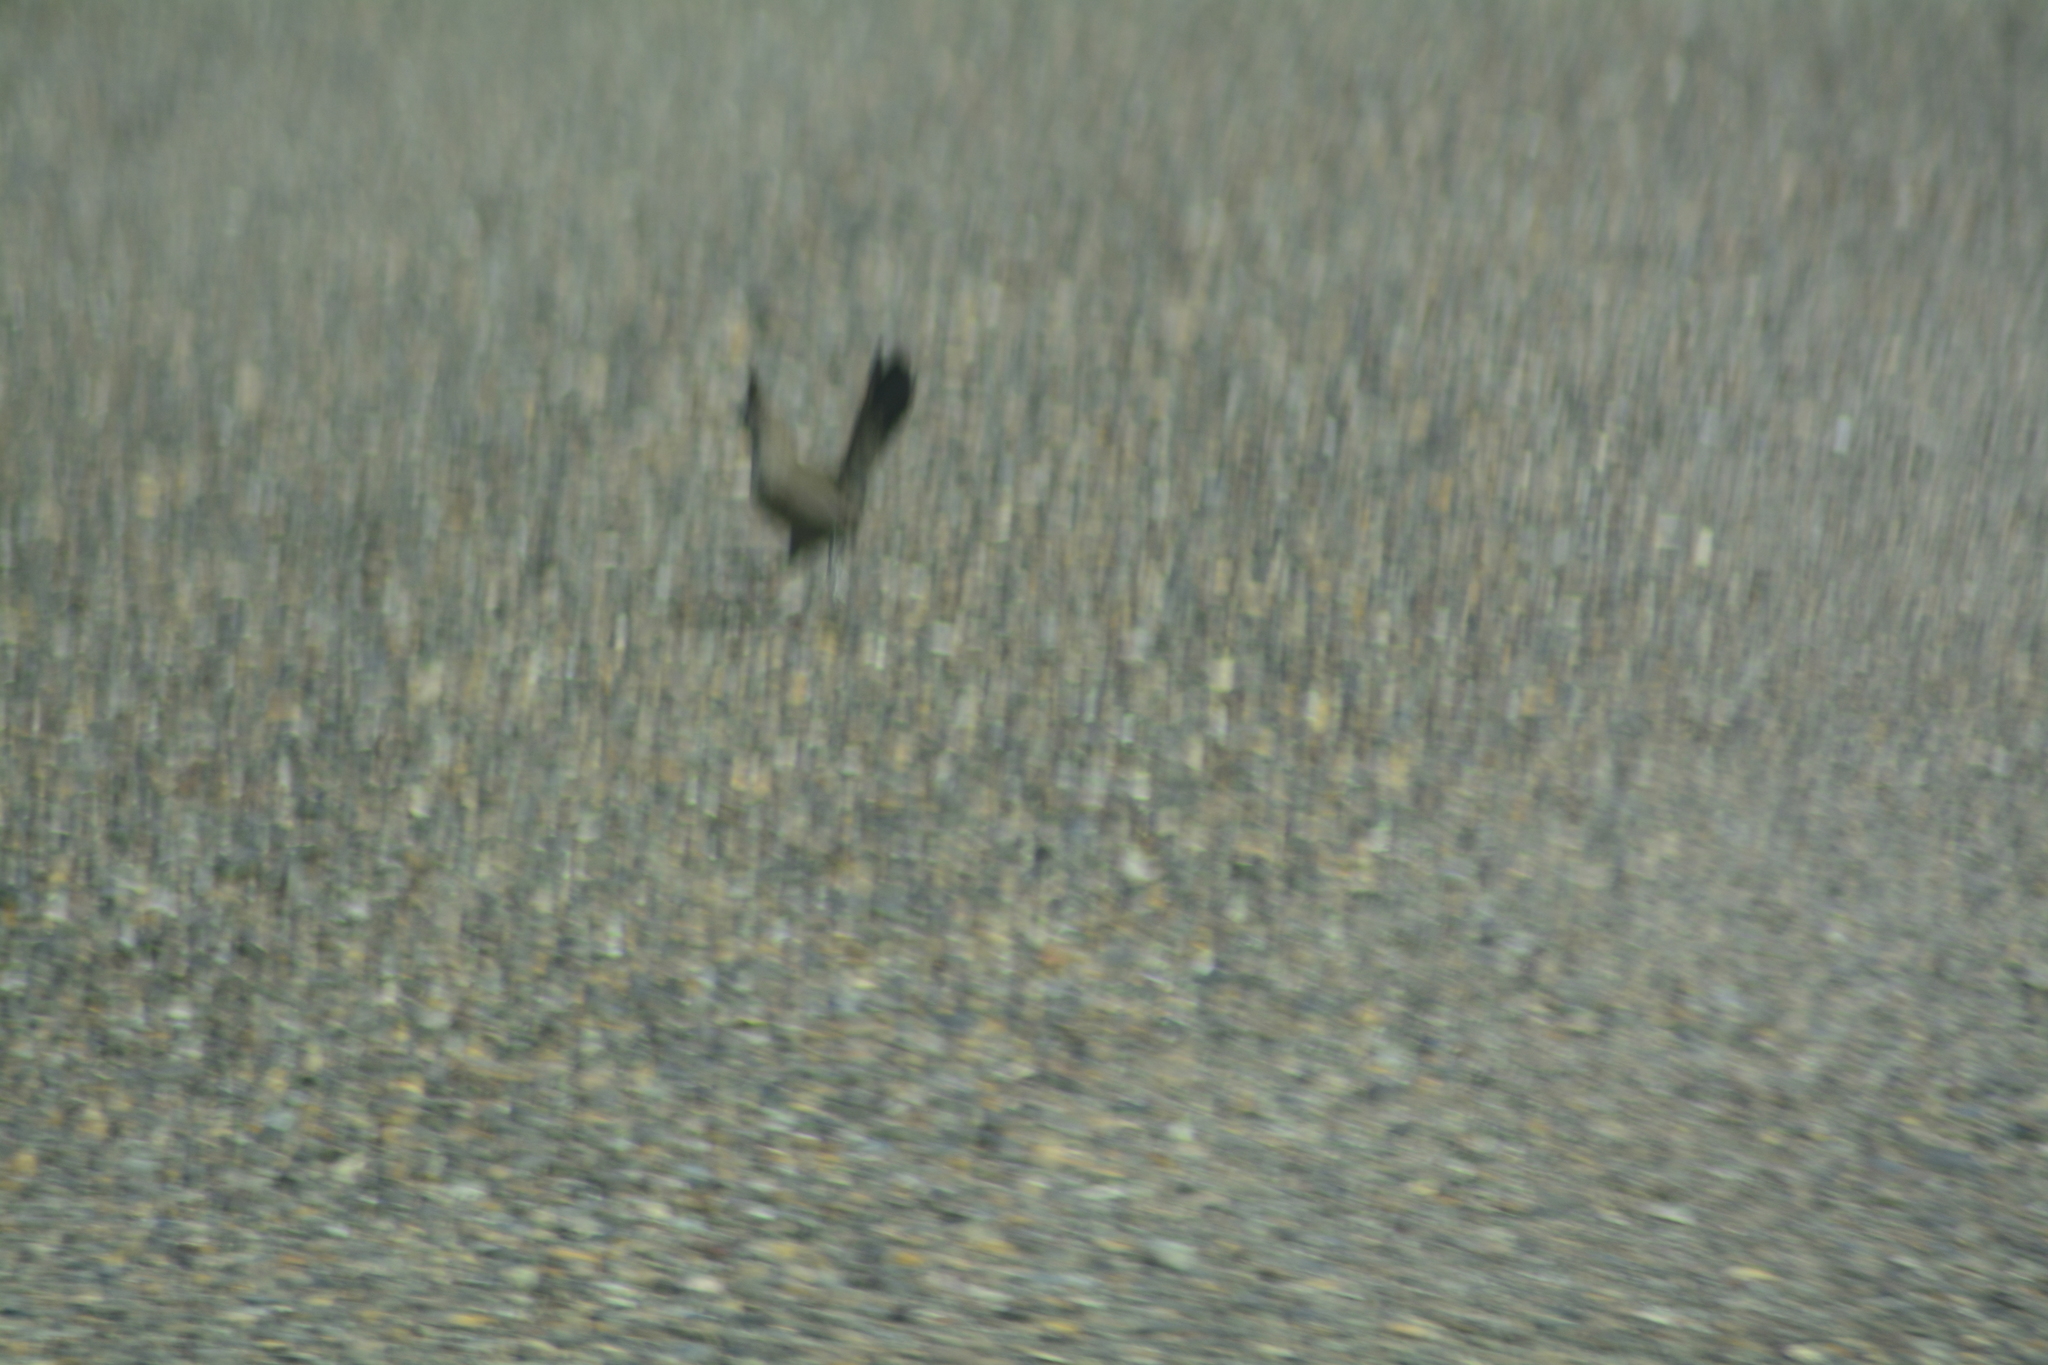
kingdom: Animalia
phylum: Chordata
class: Aves
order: Passeriformes
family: Rhinocryptidae
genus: Rhinocrypta
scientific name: Rhinocrypta lanceolata
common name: Crested gallito
